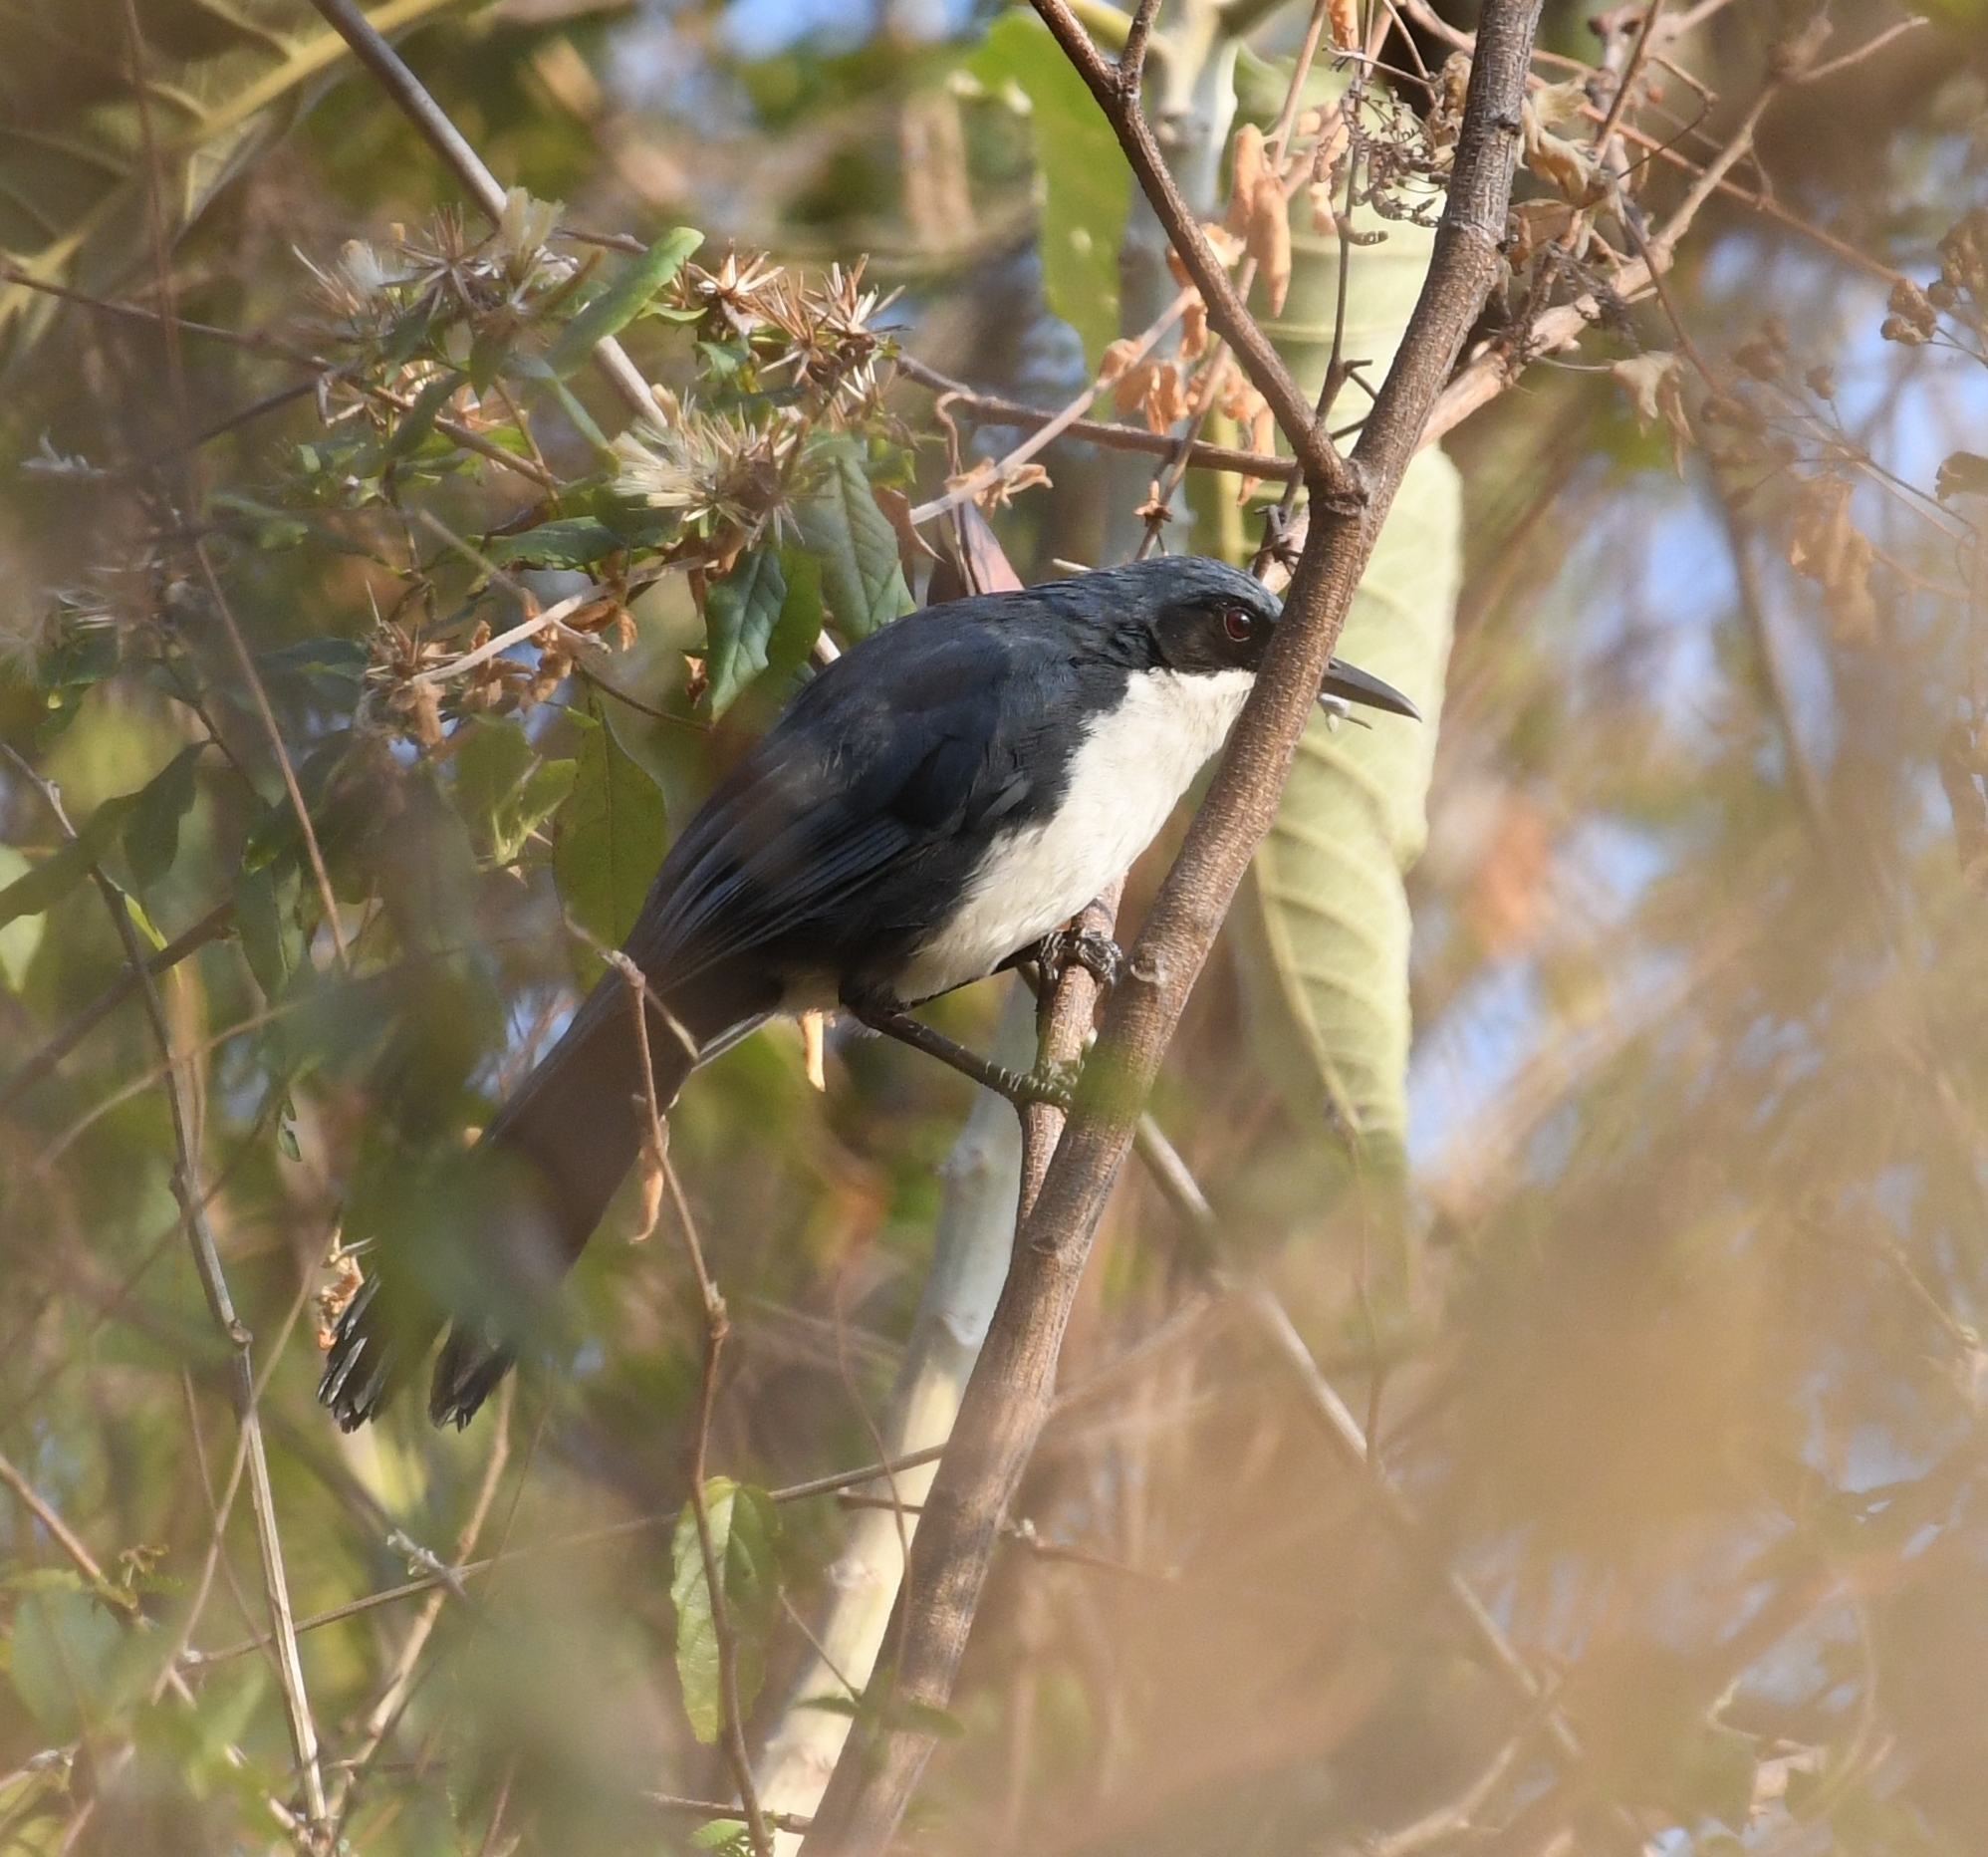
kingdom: Animalia
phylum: Chordata
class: Aves
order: Passeriformes
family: Mimidae
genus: Melanotis
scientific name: Melanotis hypoleucus
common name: Blue-and-white mockingbird
